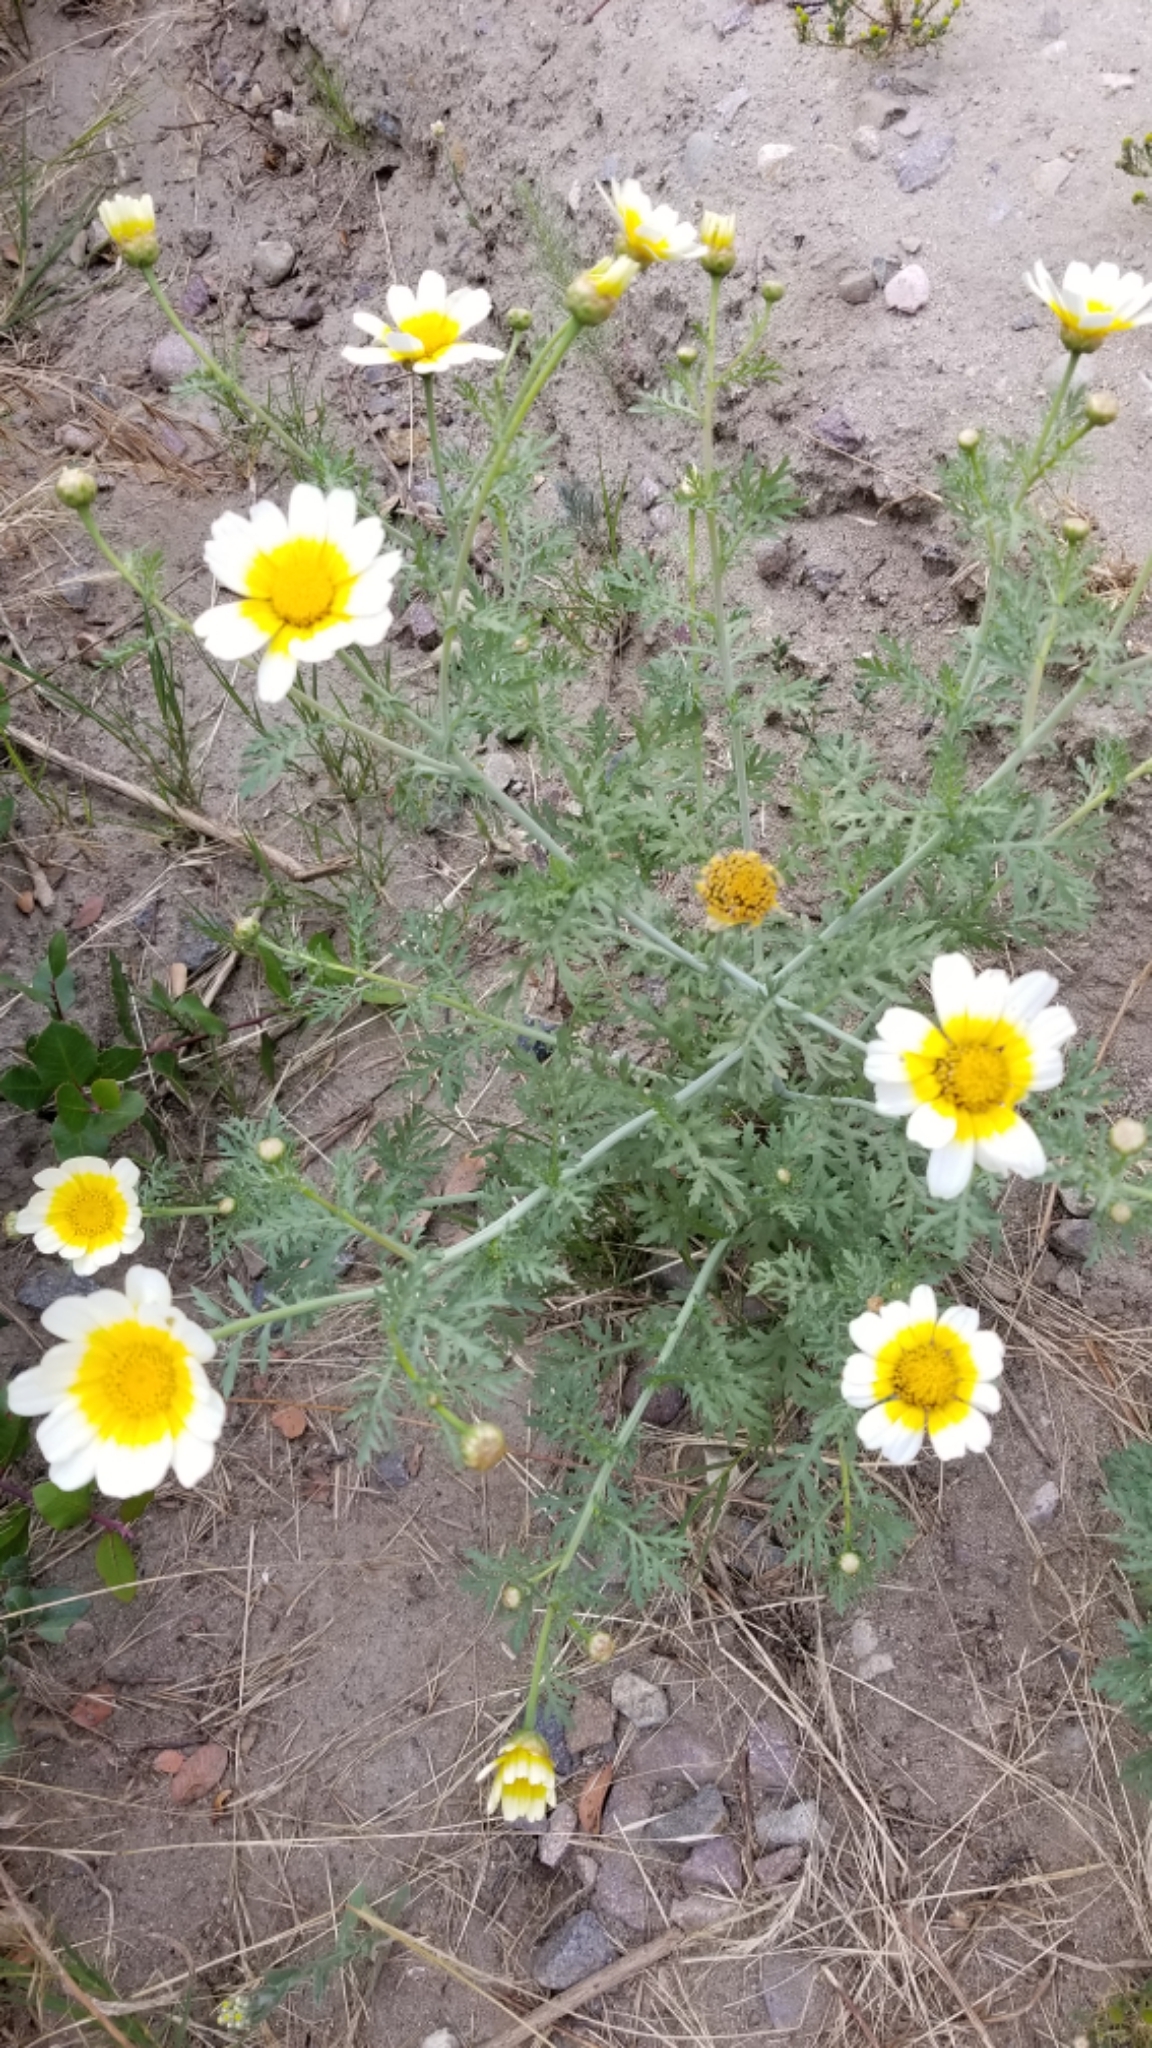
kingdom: Plantae
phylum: Tracheophyta
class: Magnoliopsida
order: Asterales
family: Asteraceae
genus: Glebionis
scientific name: Glebionis coronaria
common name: Crowndaisy
